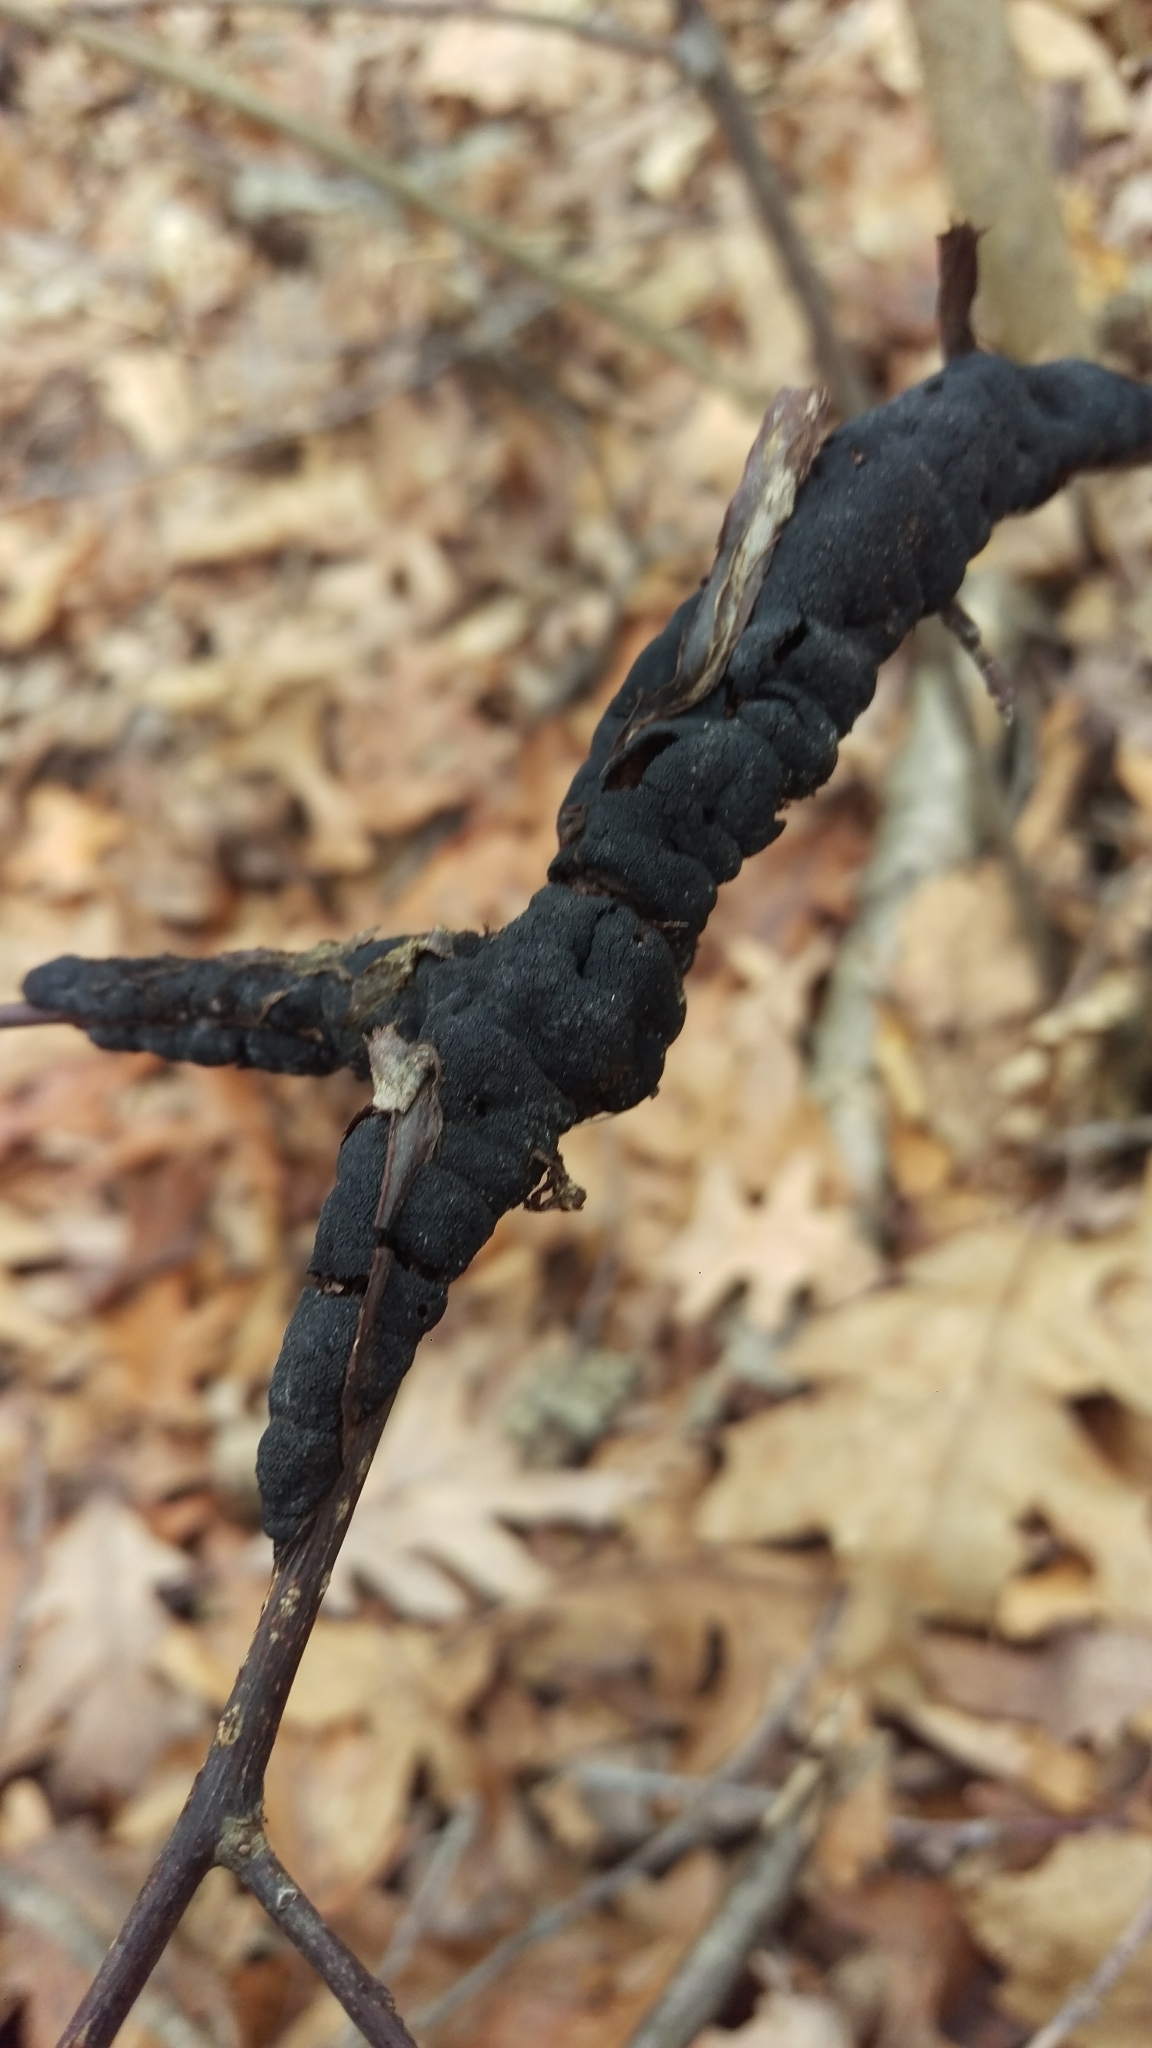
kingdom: Fungi
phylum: Ascomycota
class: Dothideomycetes
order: Venturiales
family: Venturiaceae
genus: Apiosporina
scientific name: Apiosporina morbosa
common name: Black knot
